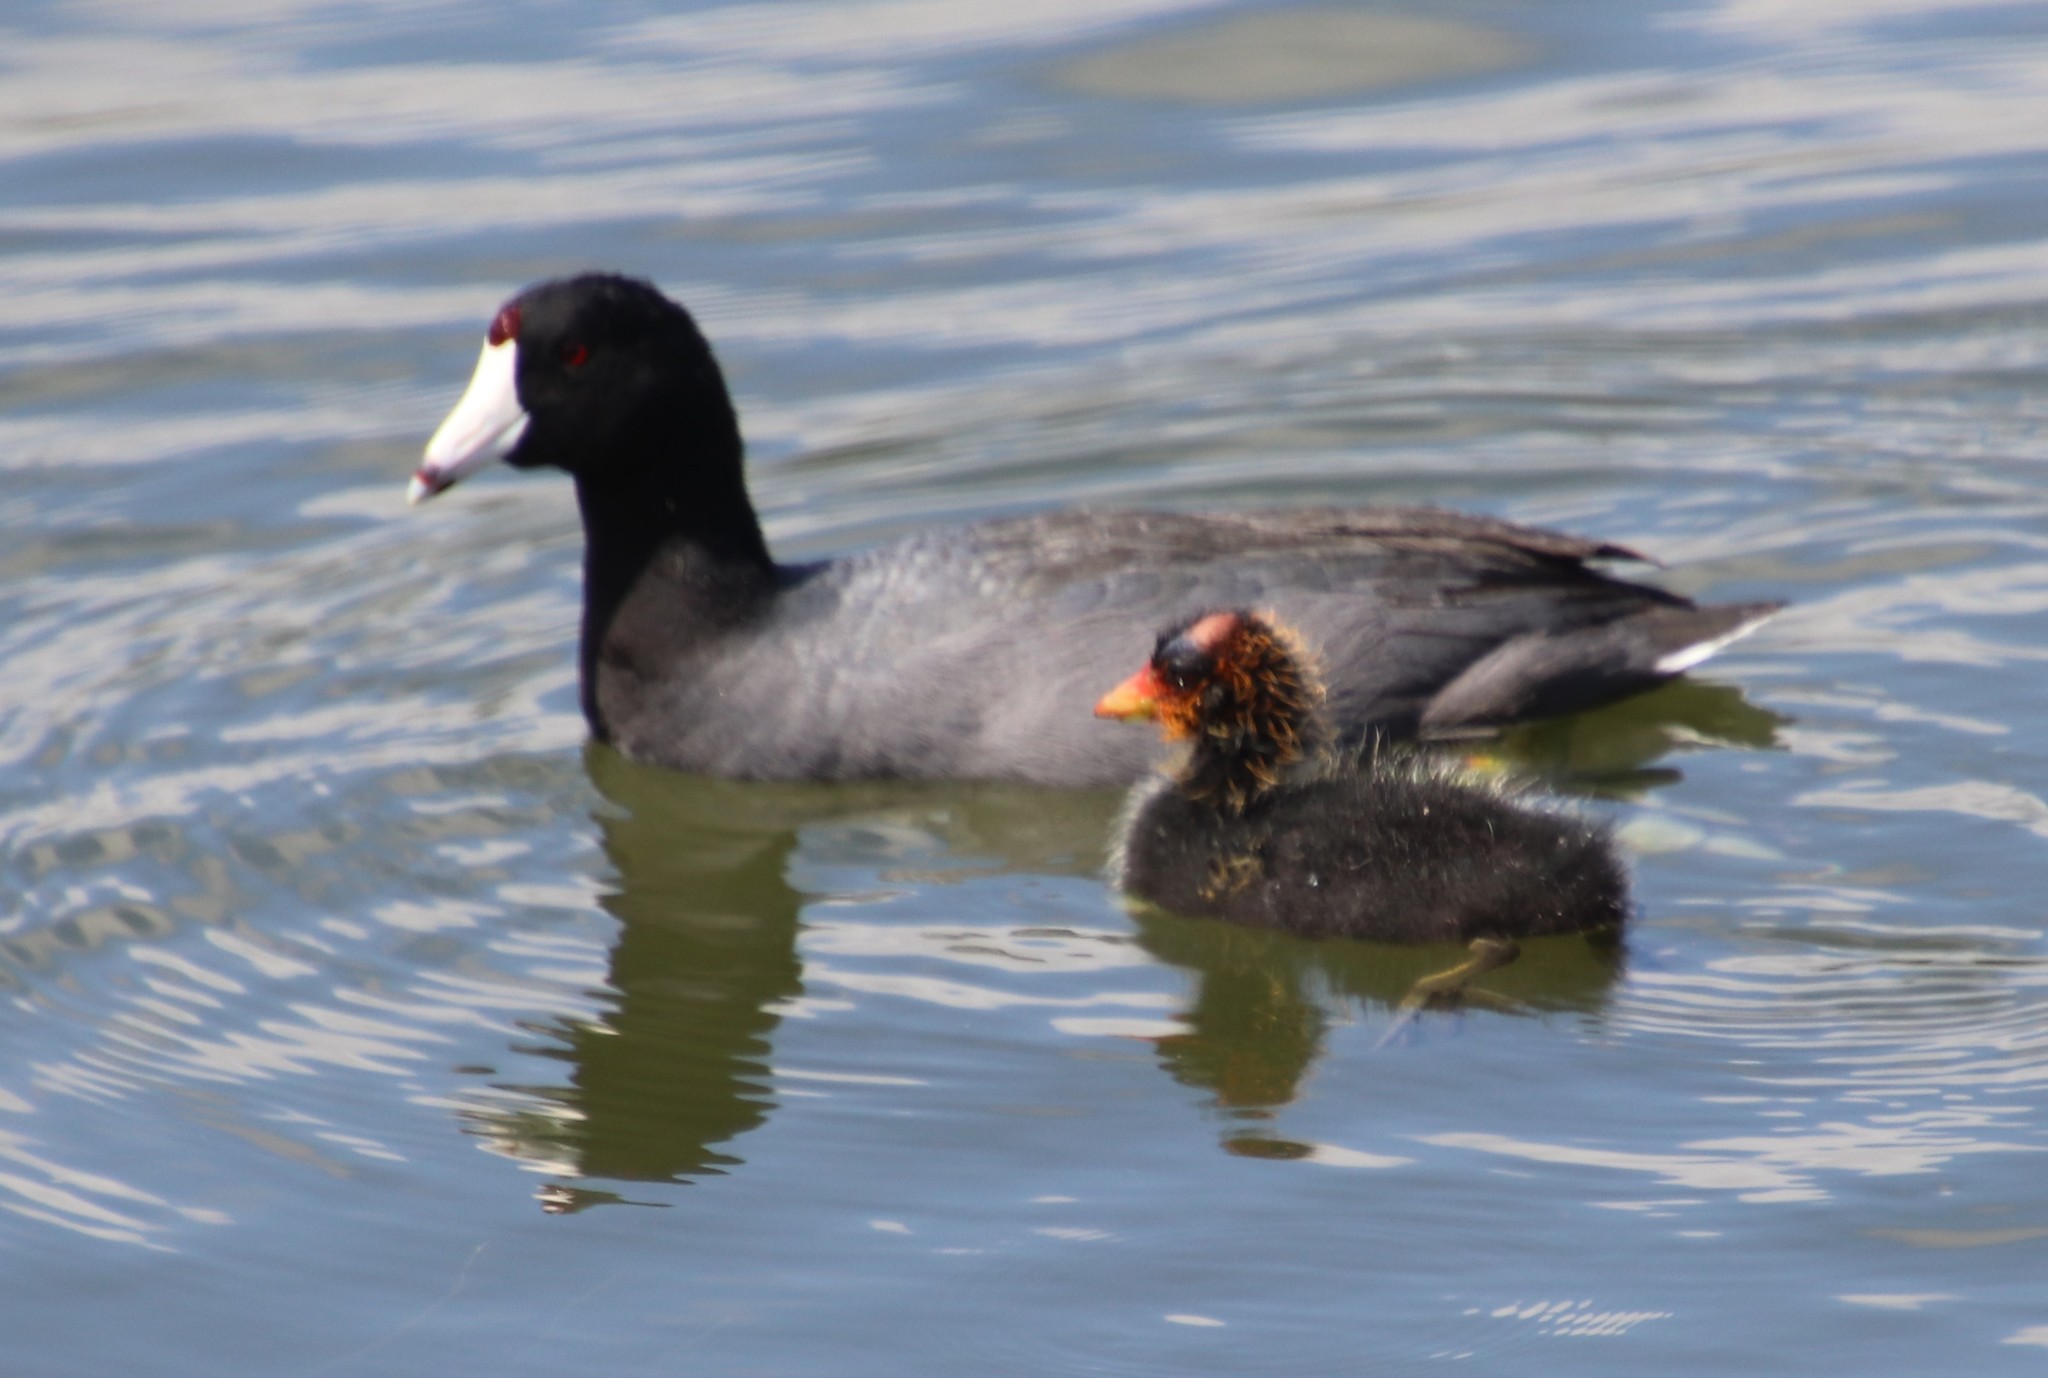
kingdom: Animalia
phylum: Chordata
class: Aves
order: Gruiformes
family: Rallidae
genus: Fulica
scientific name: Fulica americana
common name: American coot
